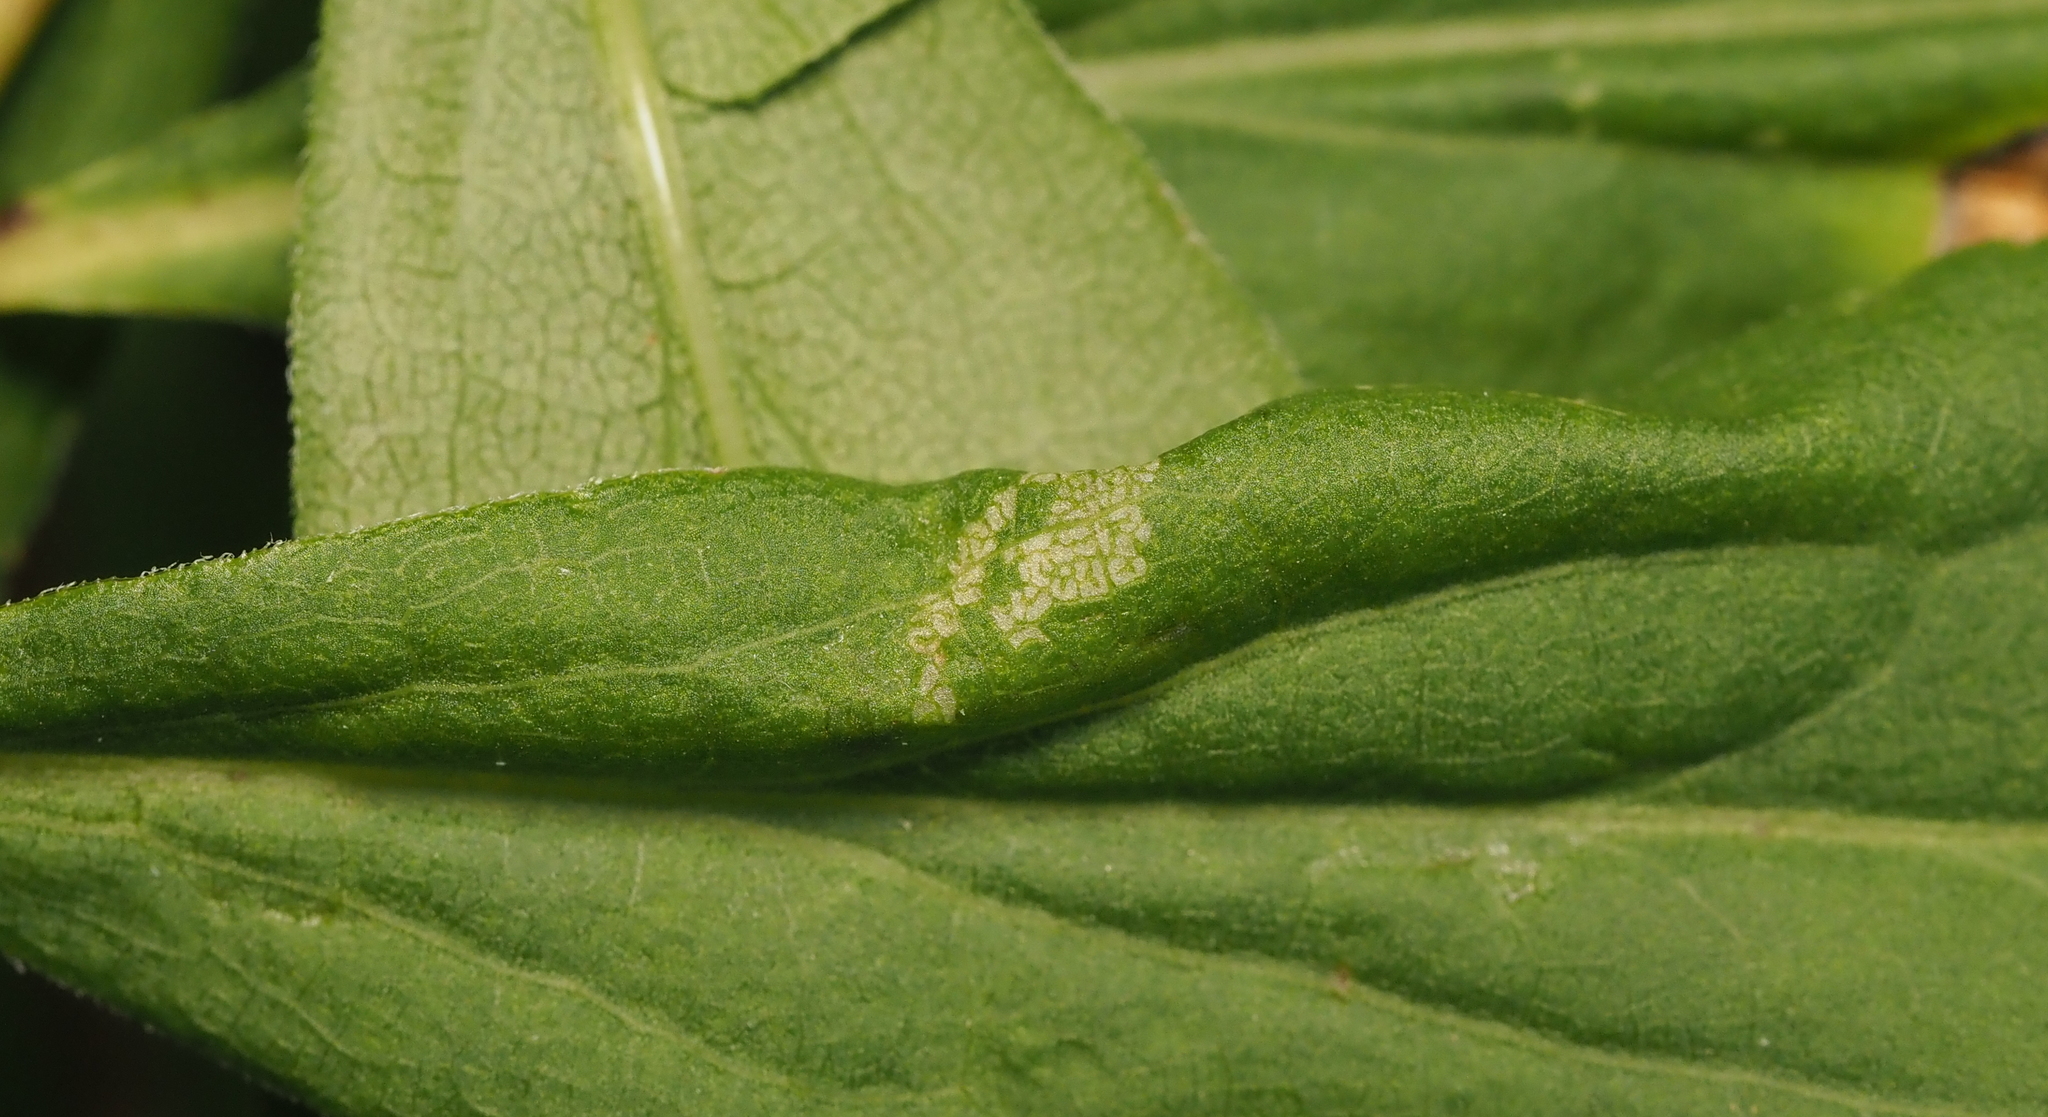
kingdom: Animalia
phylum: Arthropoda
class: Insecta
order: Lepidoptera
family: Gracillariidae
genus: Cremastobombycia
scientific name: Cremastobombycia solidaginis
